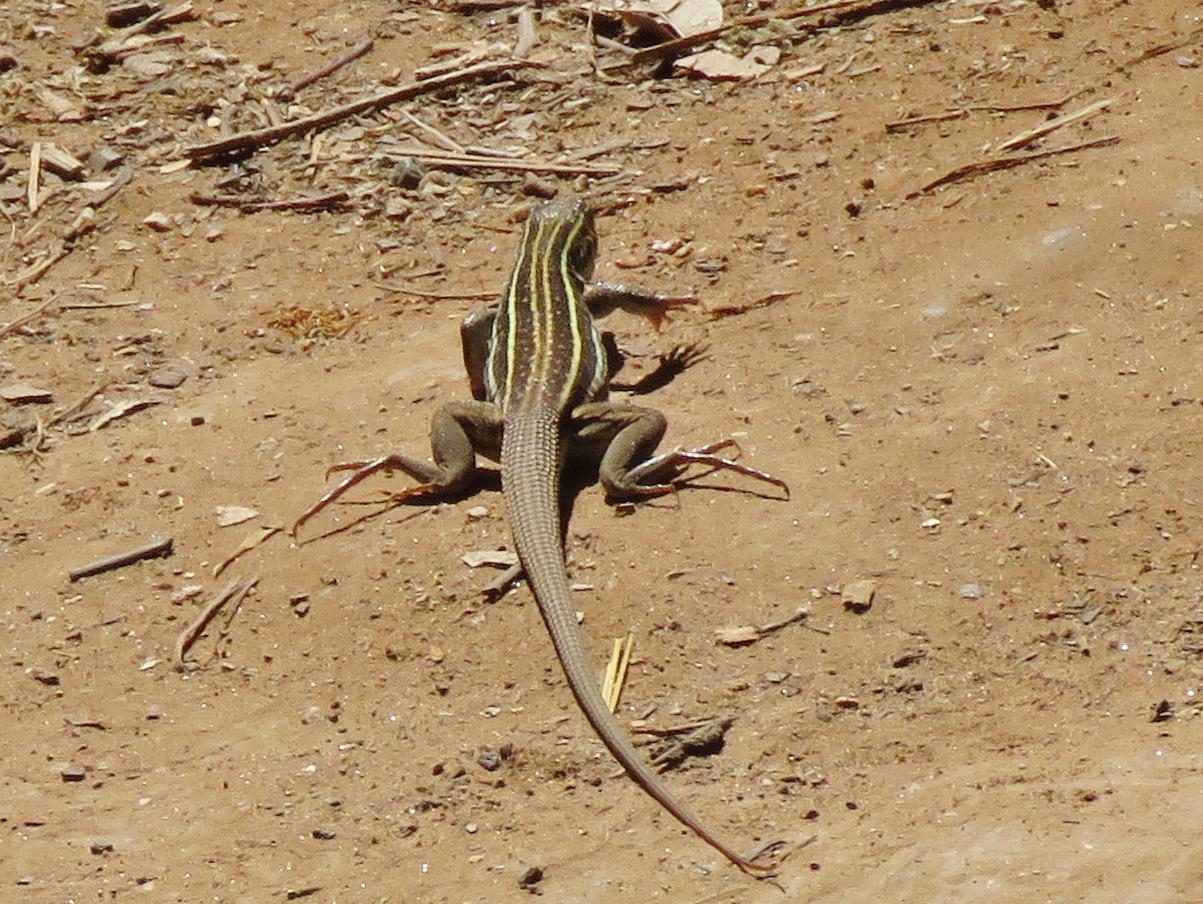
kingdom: Animalia
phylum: Chordata
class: Squamata
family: Teiidae
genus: Aspidoscelis
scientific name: Aspidoscelis sonorae
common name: Sonoran spotted whiptail
